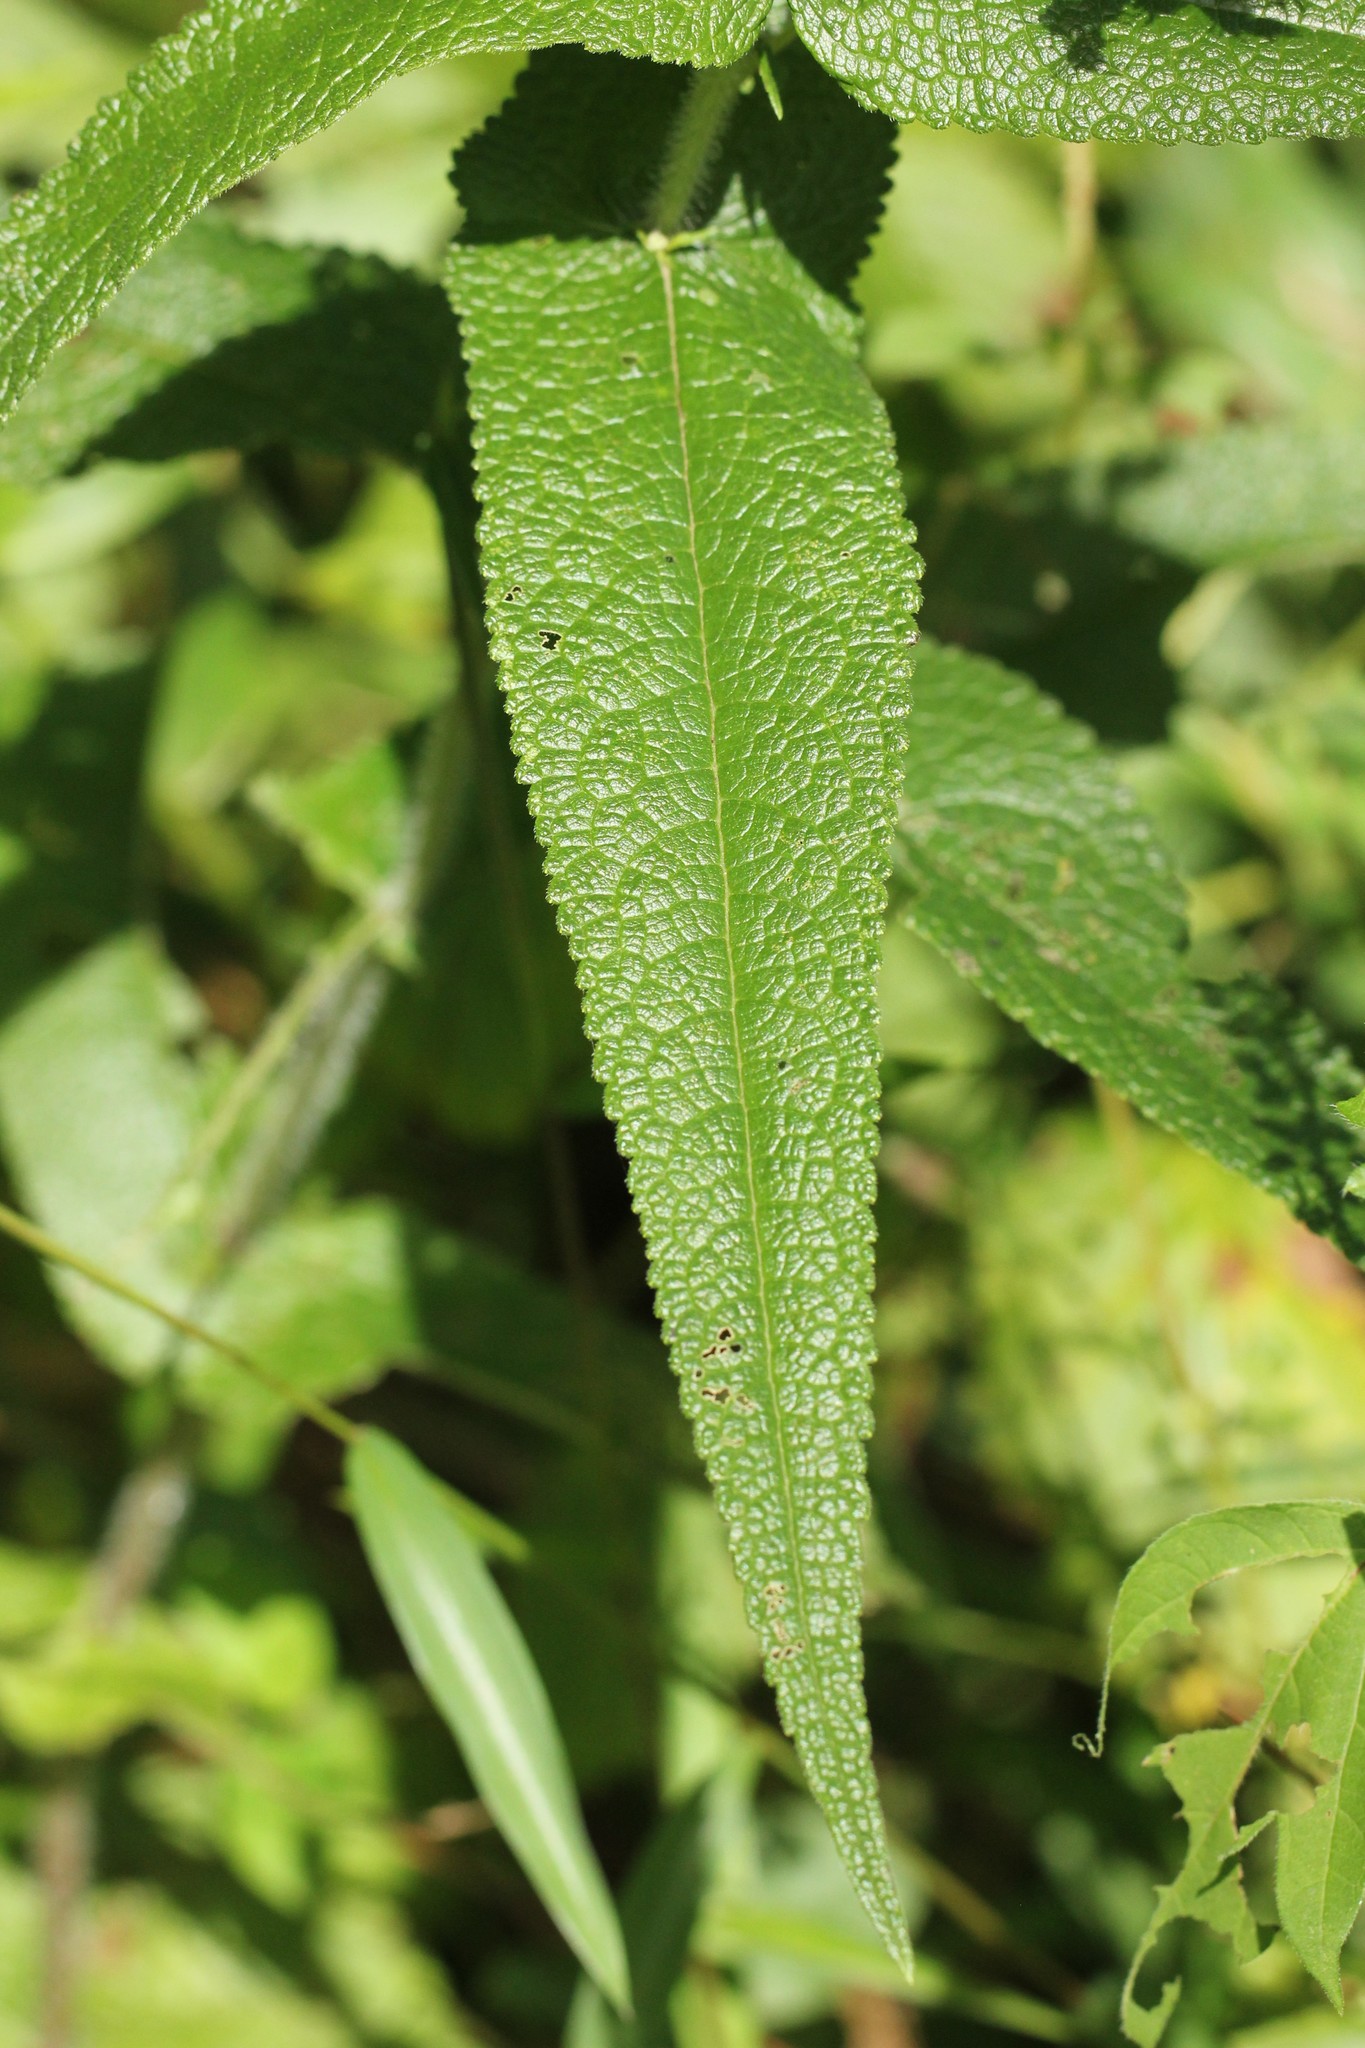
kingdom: Plantae
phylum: Tracheophyta
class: Magnoliopsida
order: Asterales
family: Asteraceae
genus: Eupatorium
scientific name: Eupatorium perfoliatum
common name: Boneset
